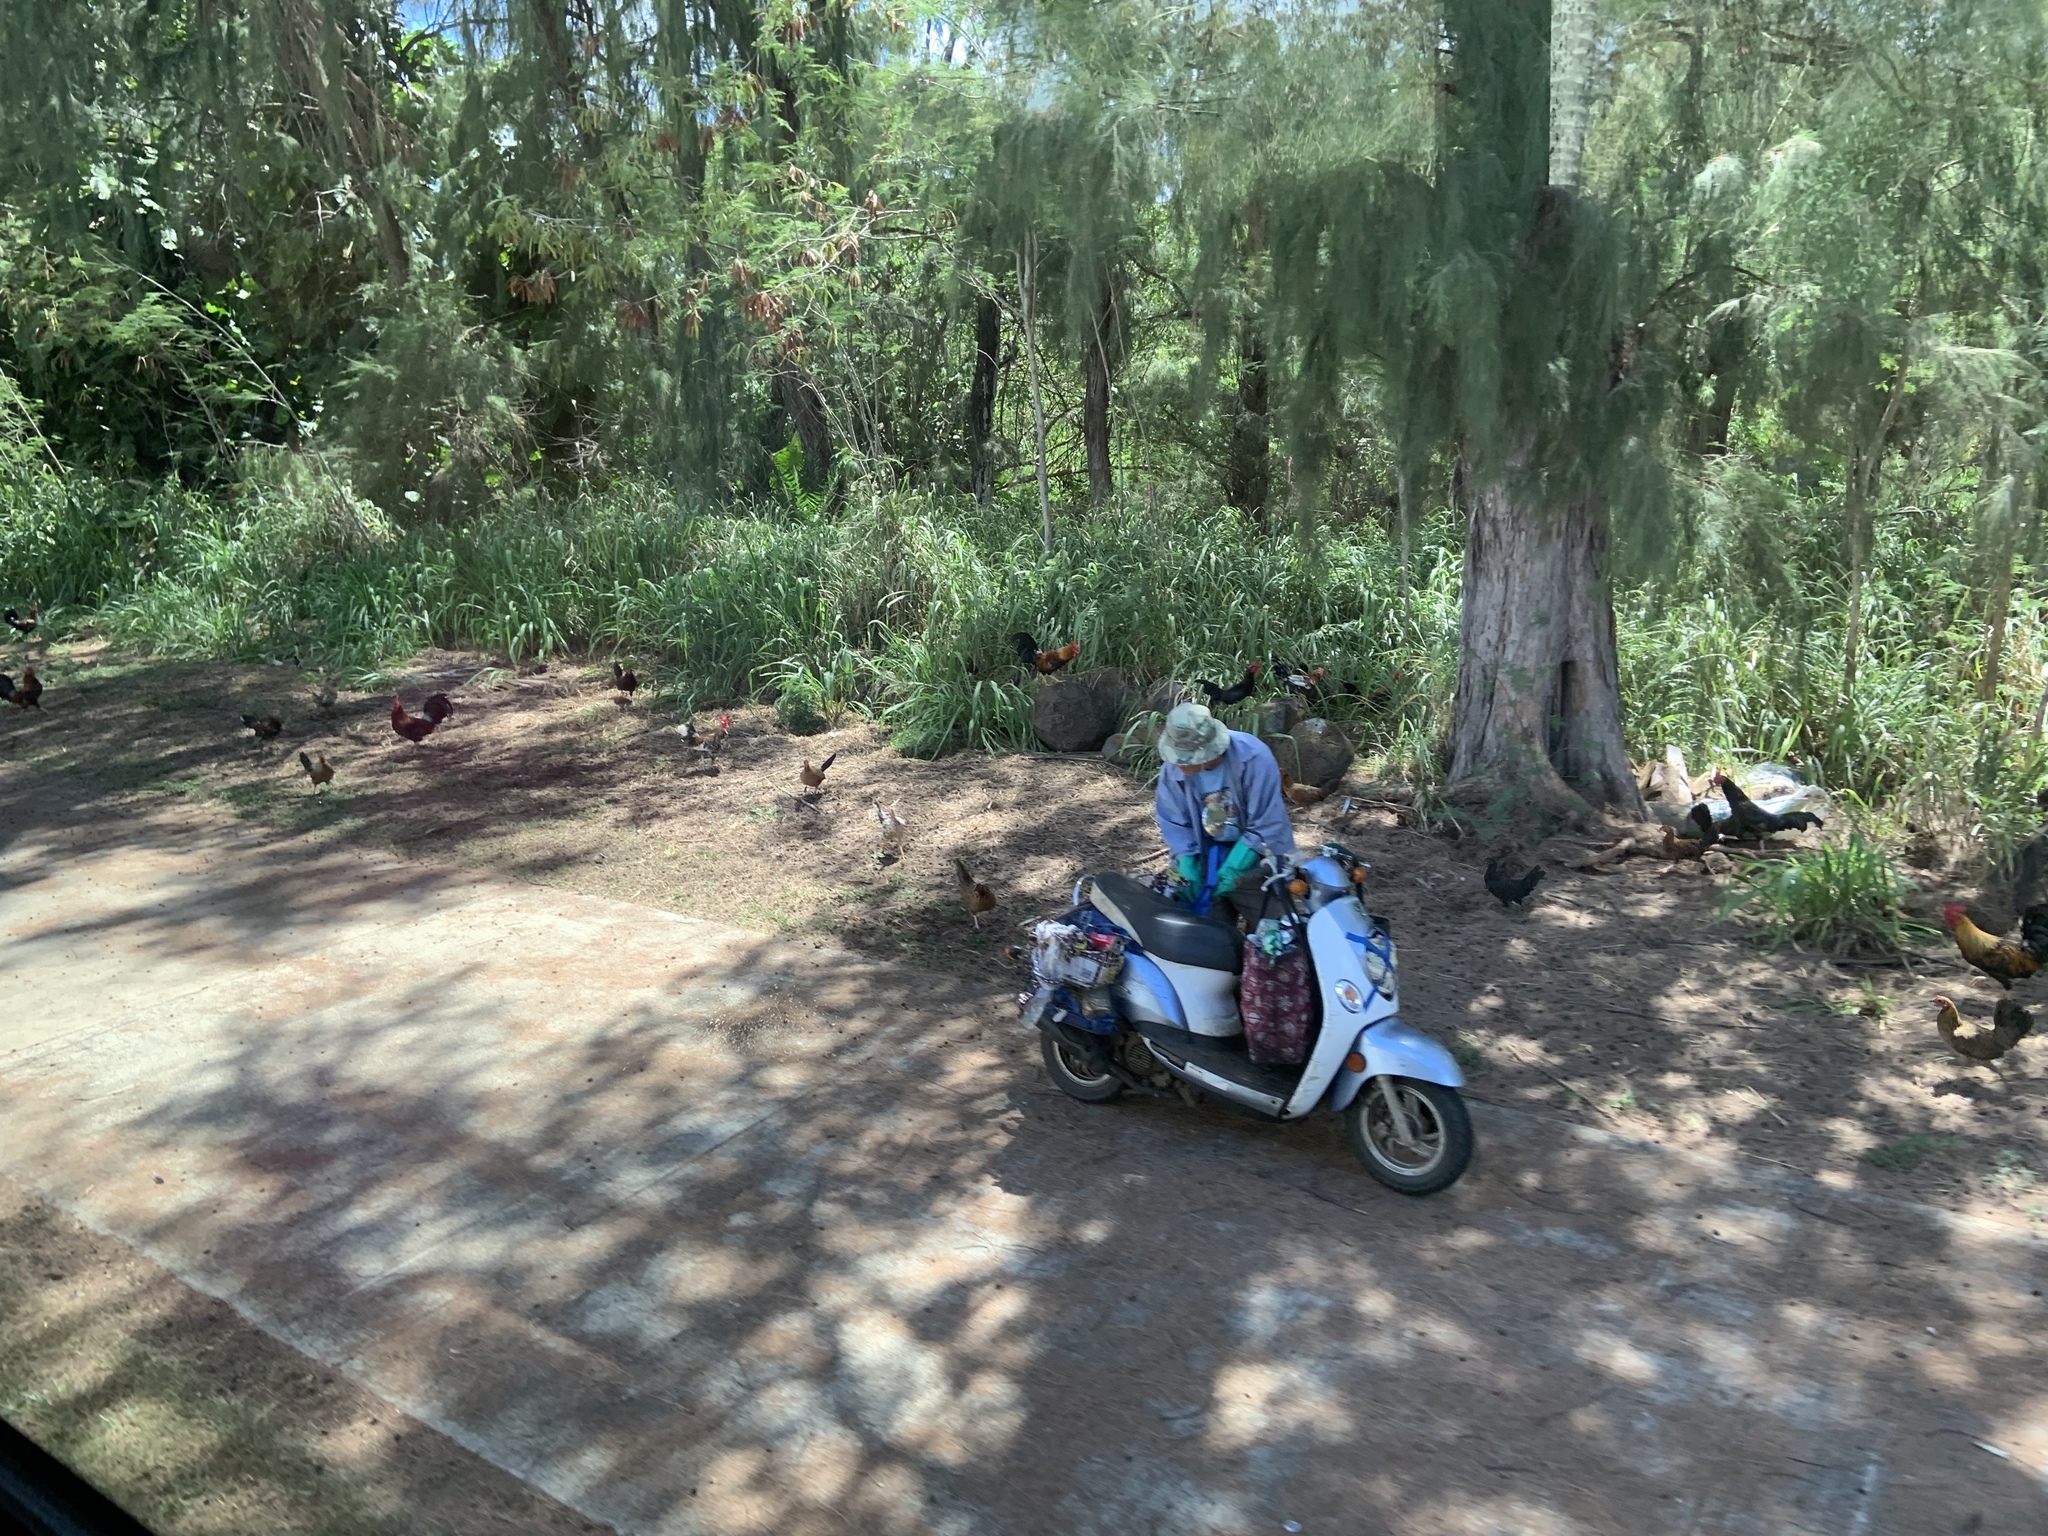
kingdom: Animalia
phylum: Chordata
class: Aves
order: Galliformes
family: Phasianidae
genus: Gallus
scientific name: Gallus gallus
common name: Red junglefowl
